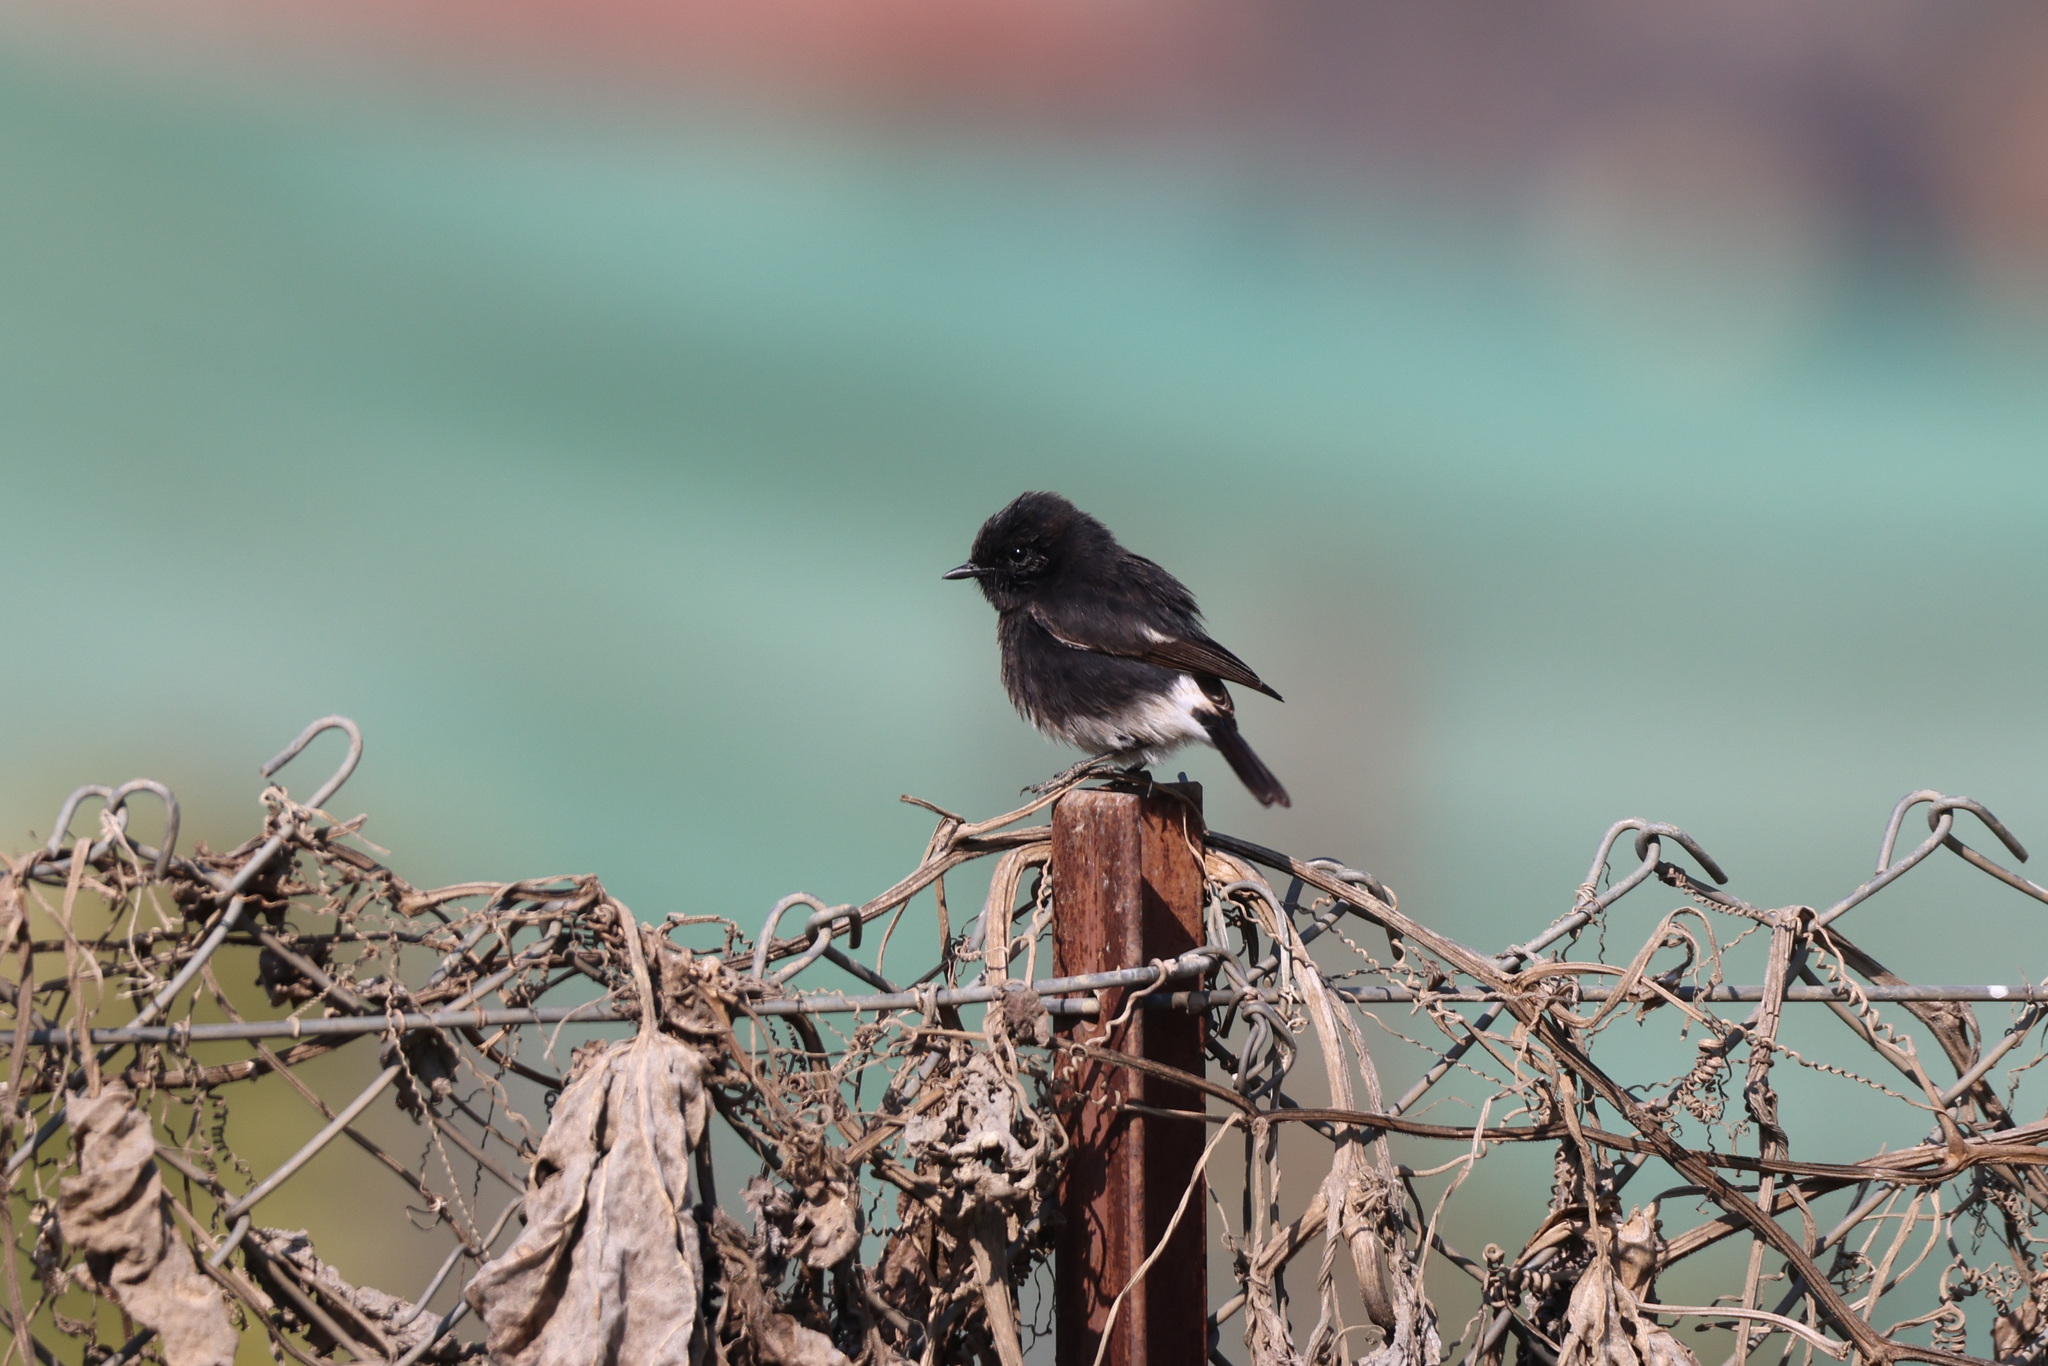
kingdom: Animalia
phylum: Chordata
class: Aves
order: Passeriformes
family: Muscicapidae
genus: Saxicola
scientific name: Saxicola caprata
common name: Pied bush chat
